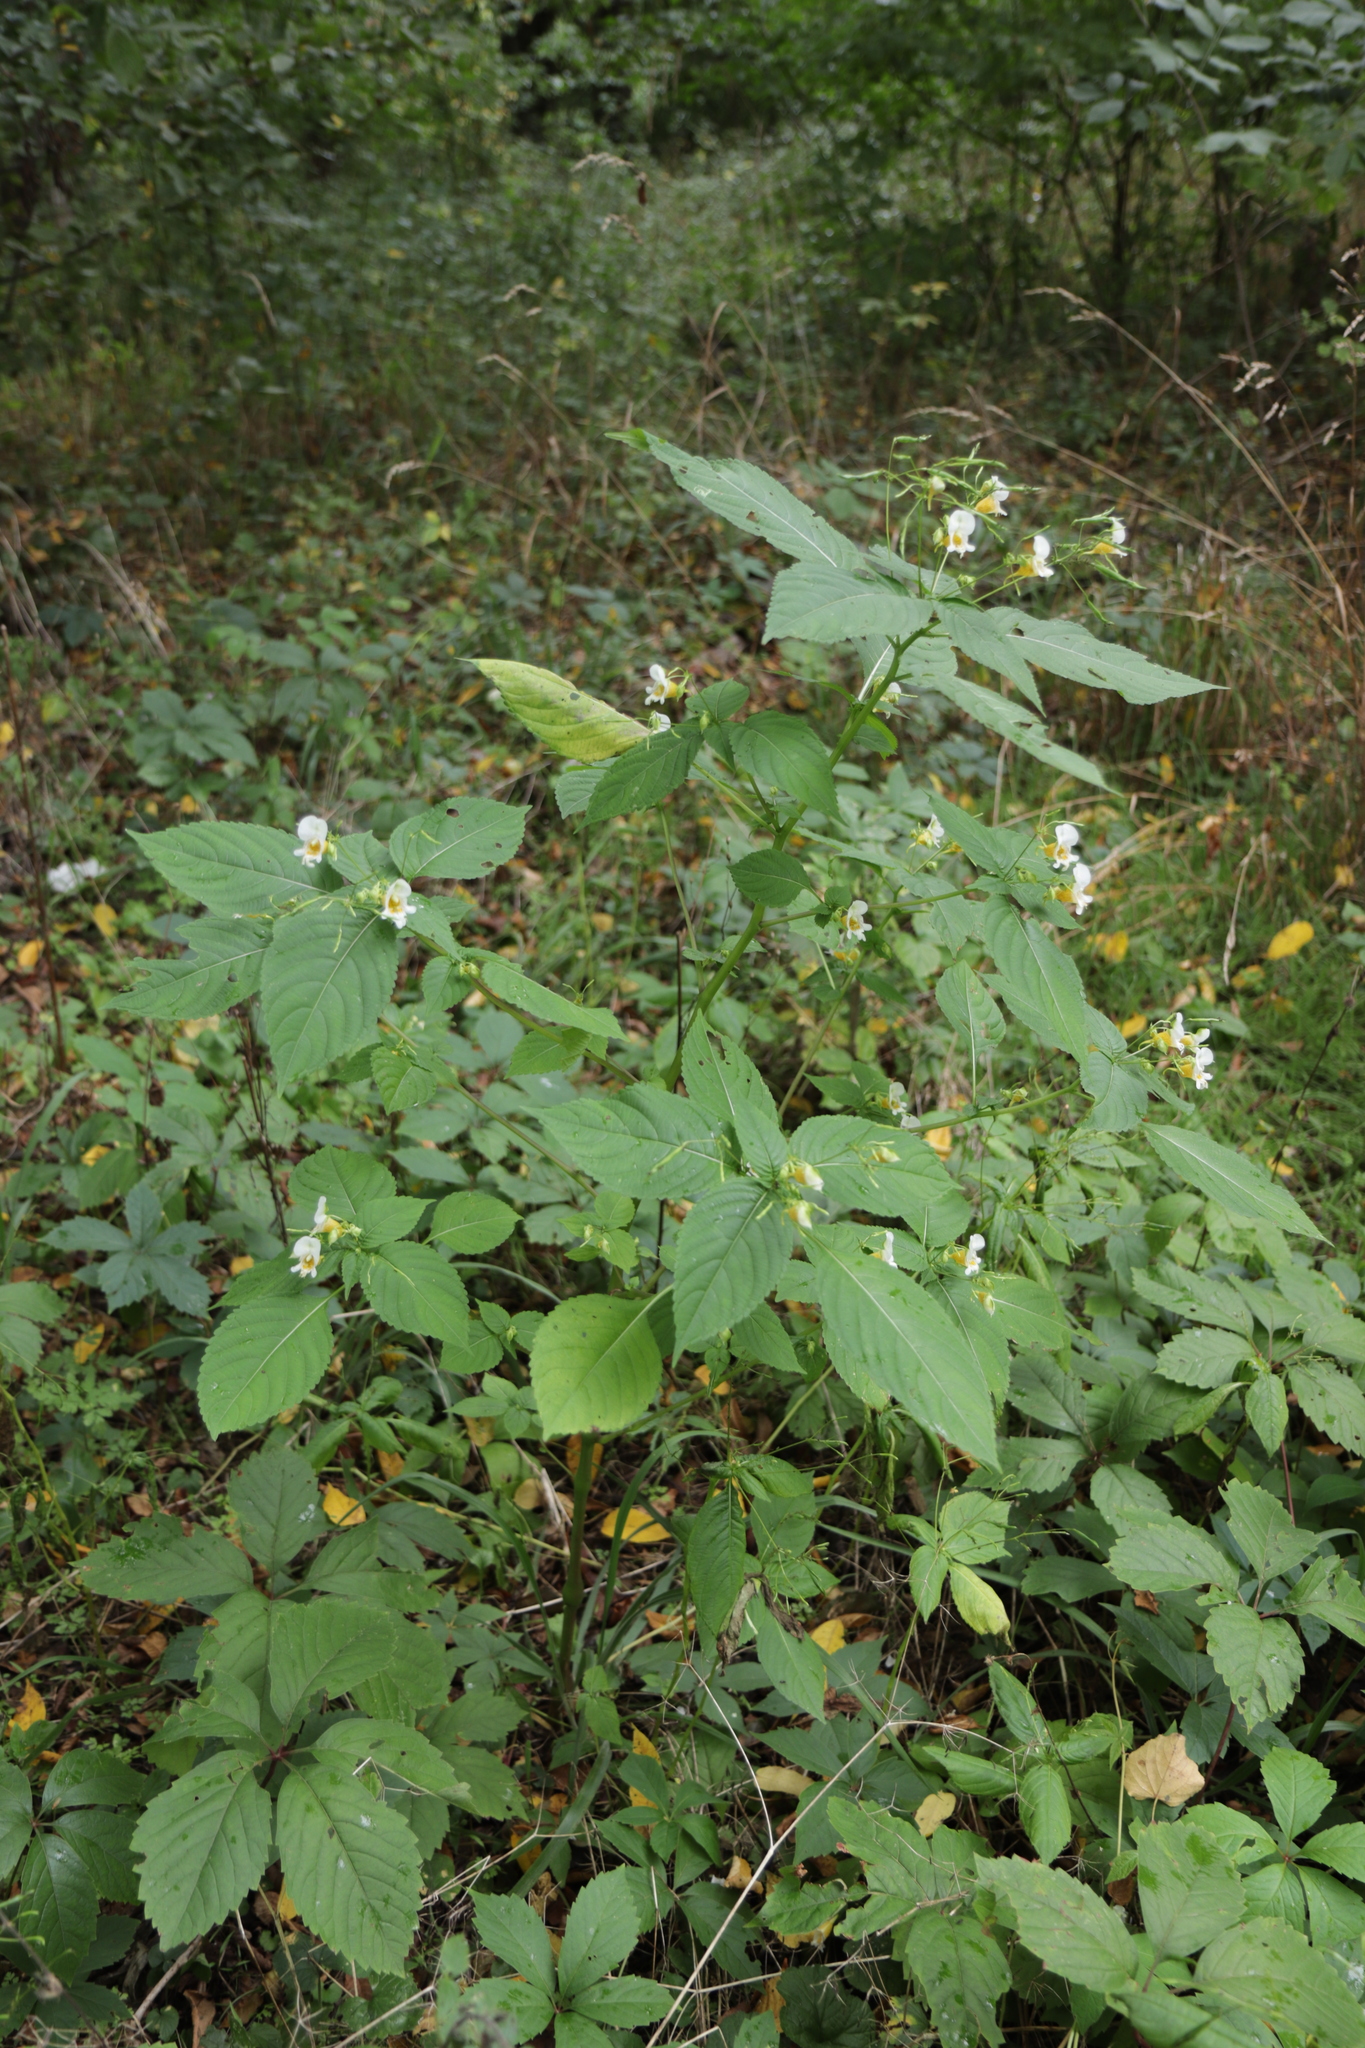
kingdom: Plantae
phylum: Tracheophyta
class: Magnoliopsida
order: Ericales
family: Balsaminaceae
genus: Impatiens
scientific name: Impatiens edgeworthii
